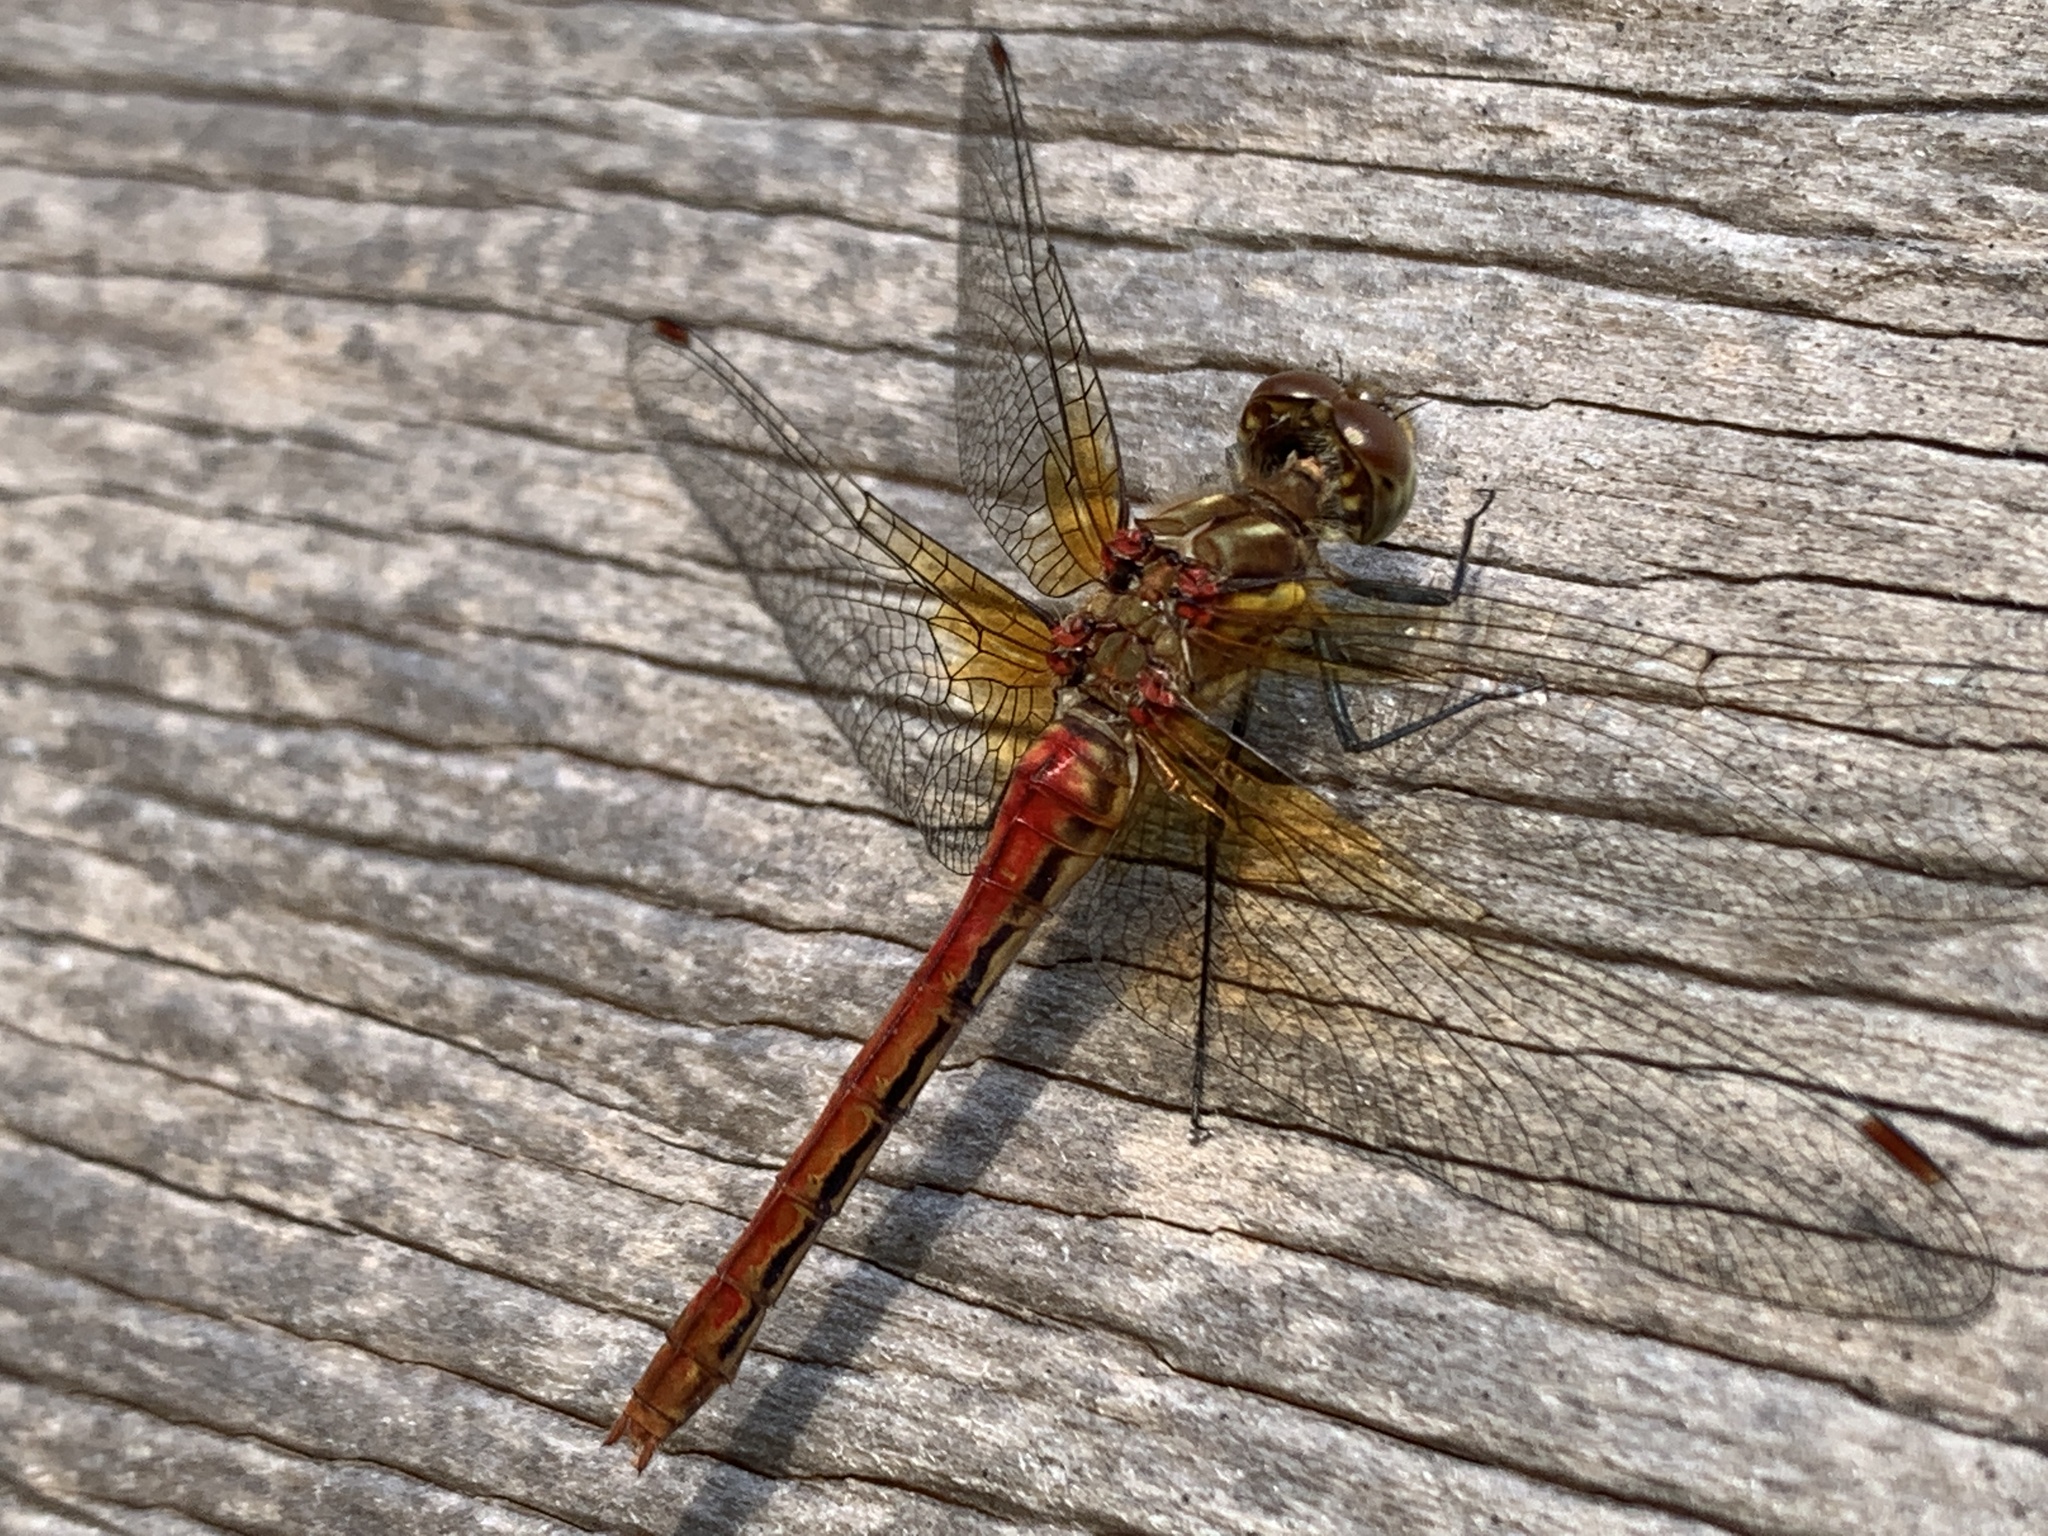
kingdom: Animalia
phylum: Arthropoda
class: Insecta
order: Odonata
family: Libellulidae
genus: Sympetrum
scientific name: Sympetrum pallipes
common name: Striped meadowhawk
